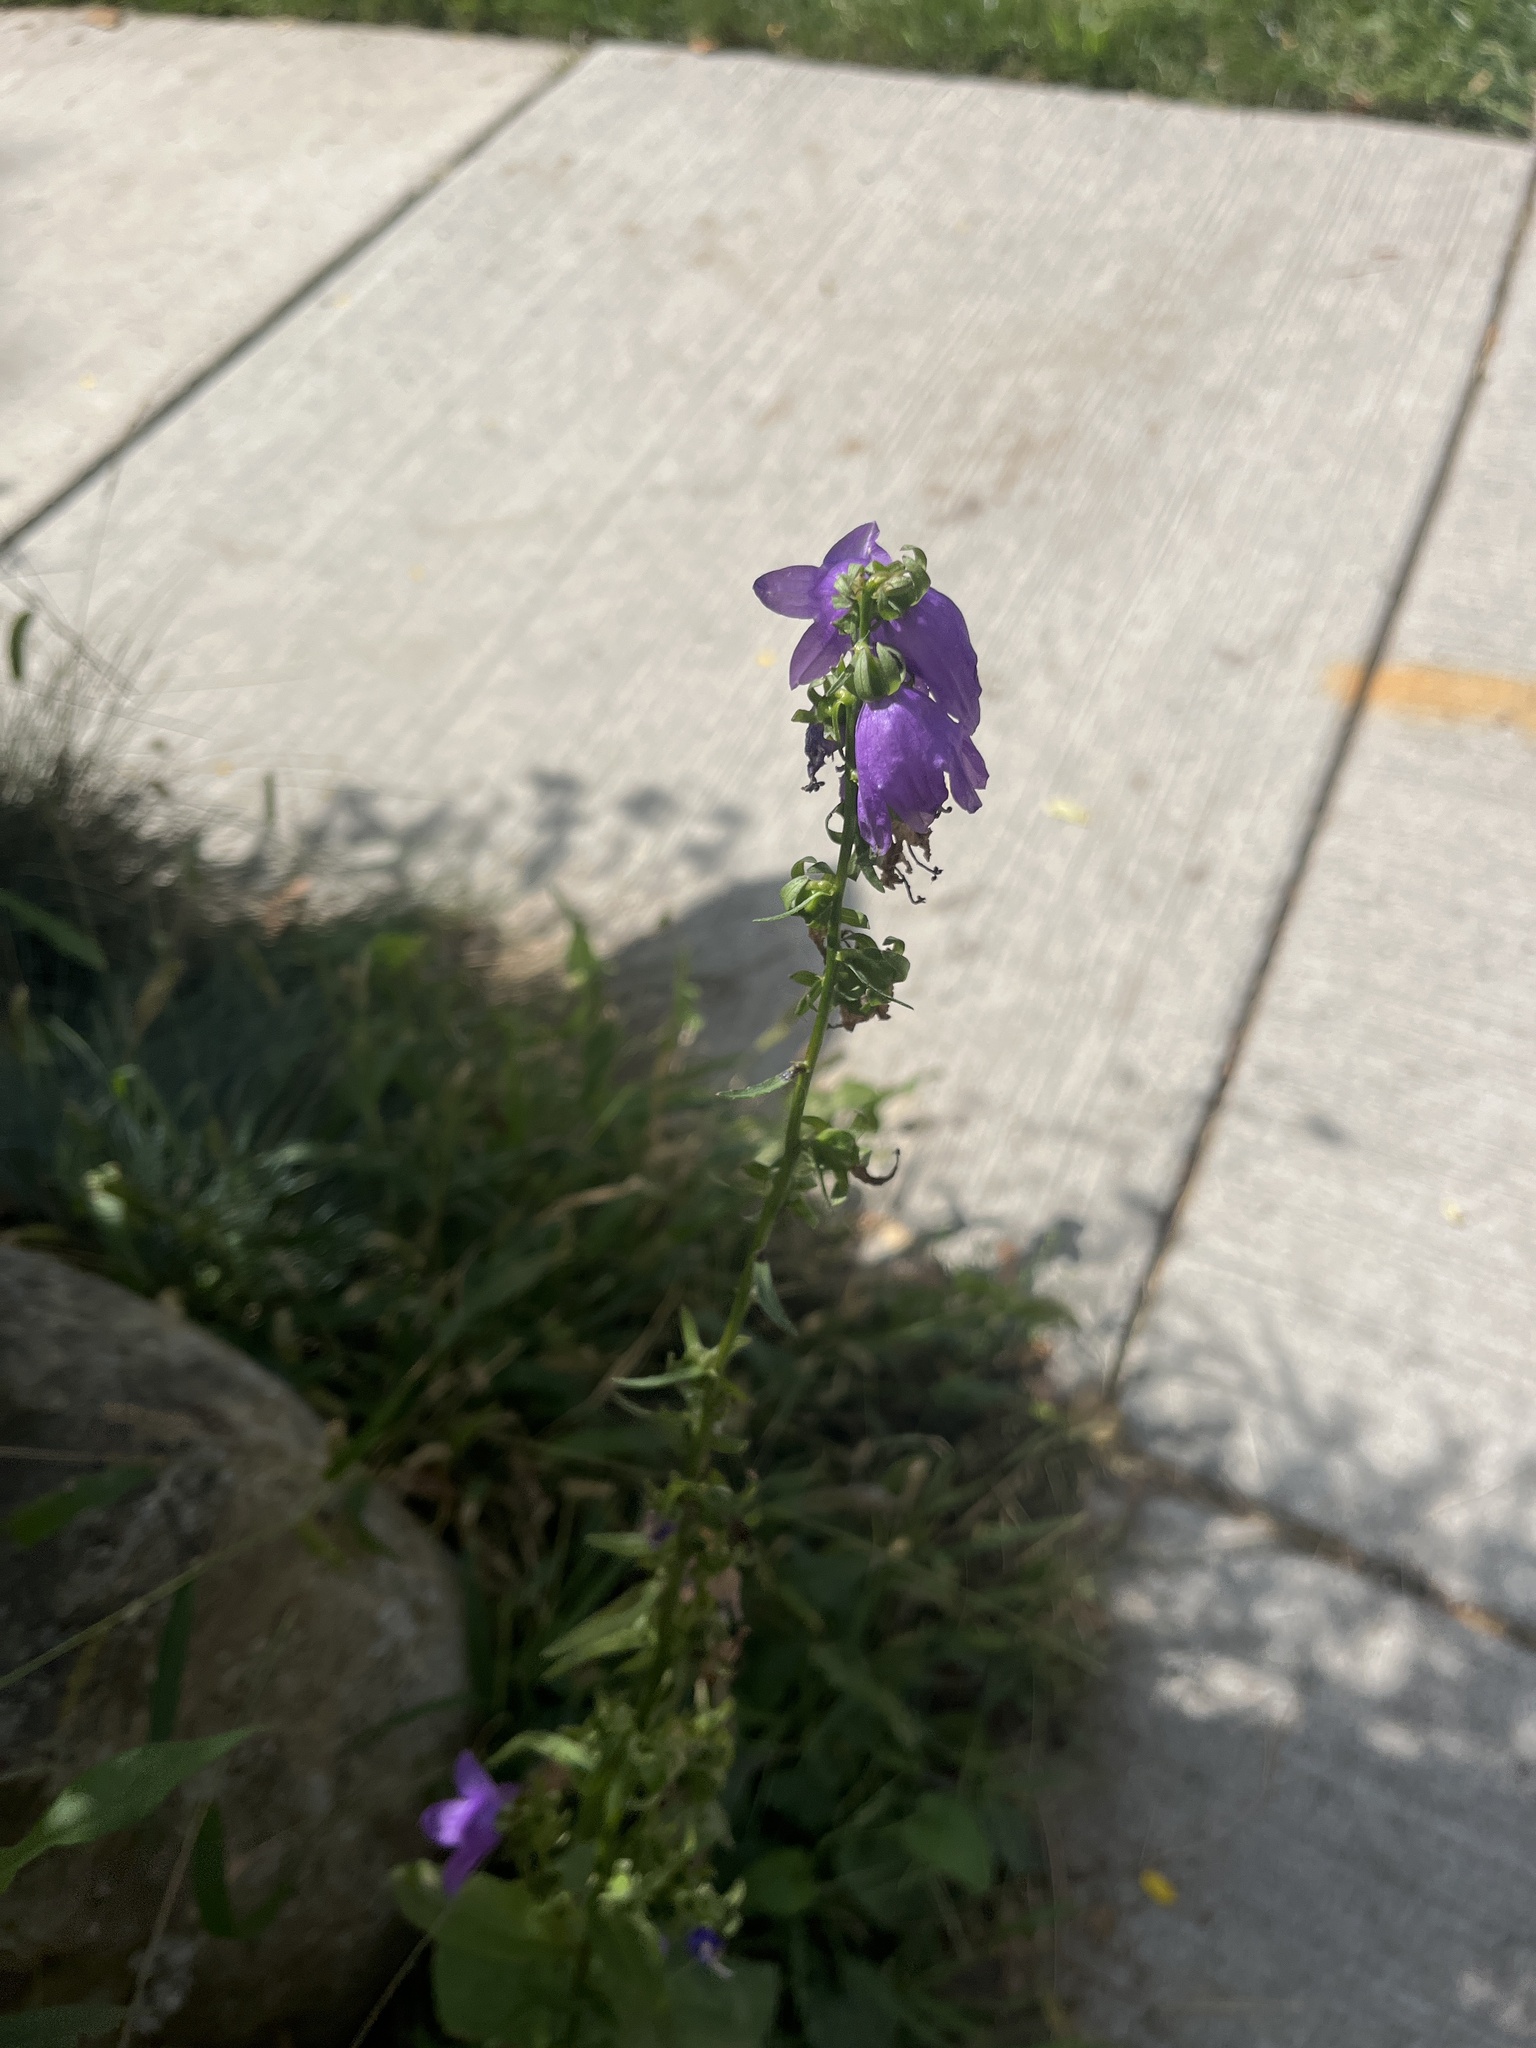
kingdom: Plantae
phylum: Tracheophyta
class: Magnoliopsida
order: Asterales
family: Campanulaceae
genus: Campanula
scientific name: Campanula rapunculoides
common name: Creeping bellflower
